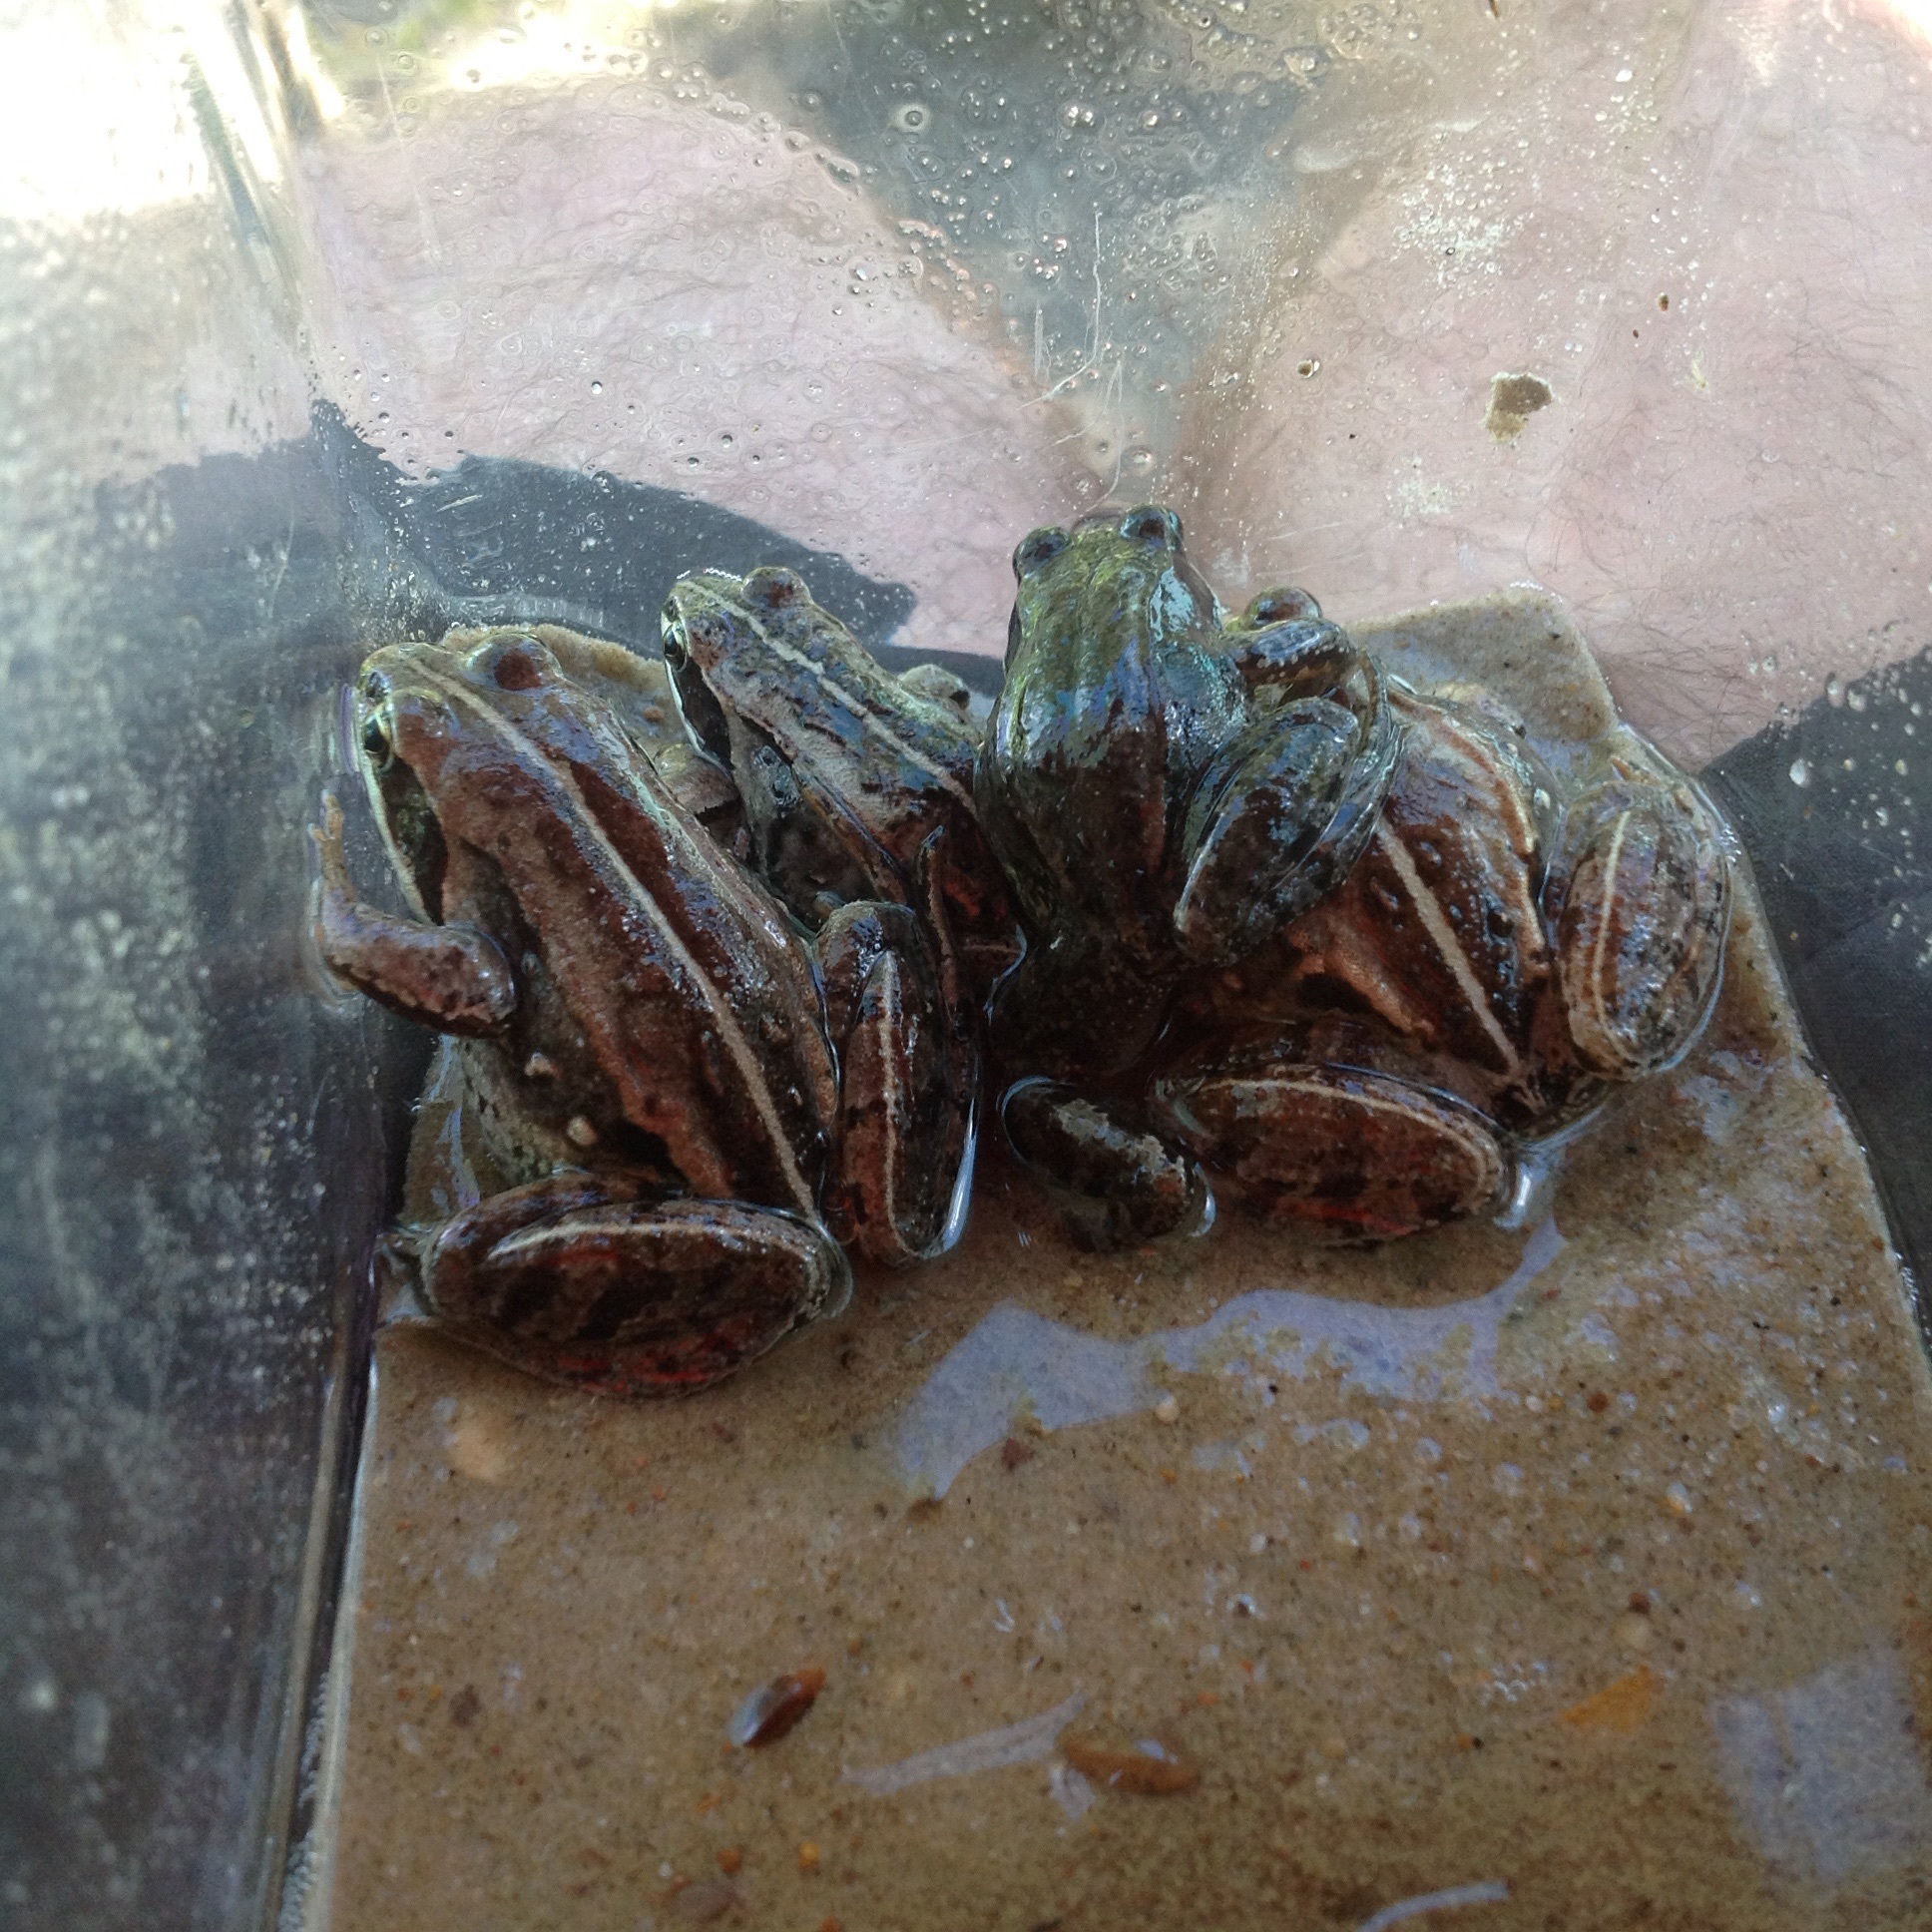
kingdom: Animalia
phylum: Chordata
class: Amphibia
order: Anura
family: Ranidae
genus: Lithobates
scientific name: Lithobates sylvaticus
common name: Wood frog
